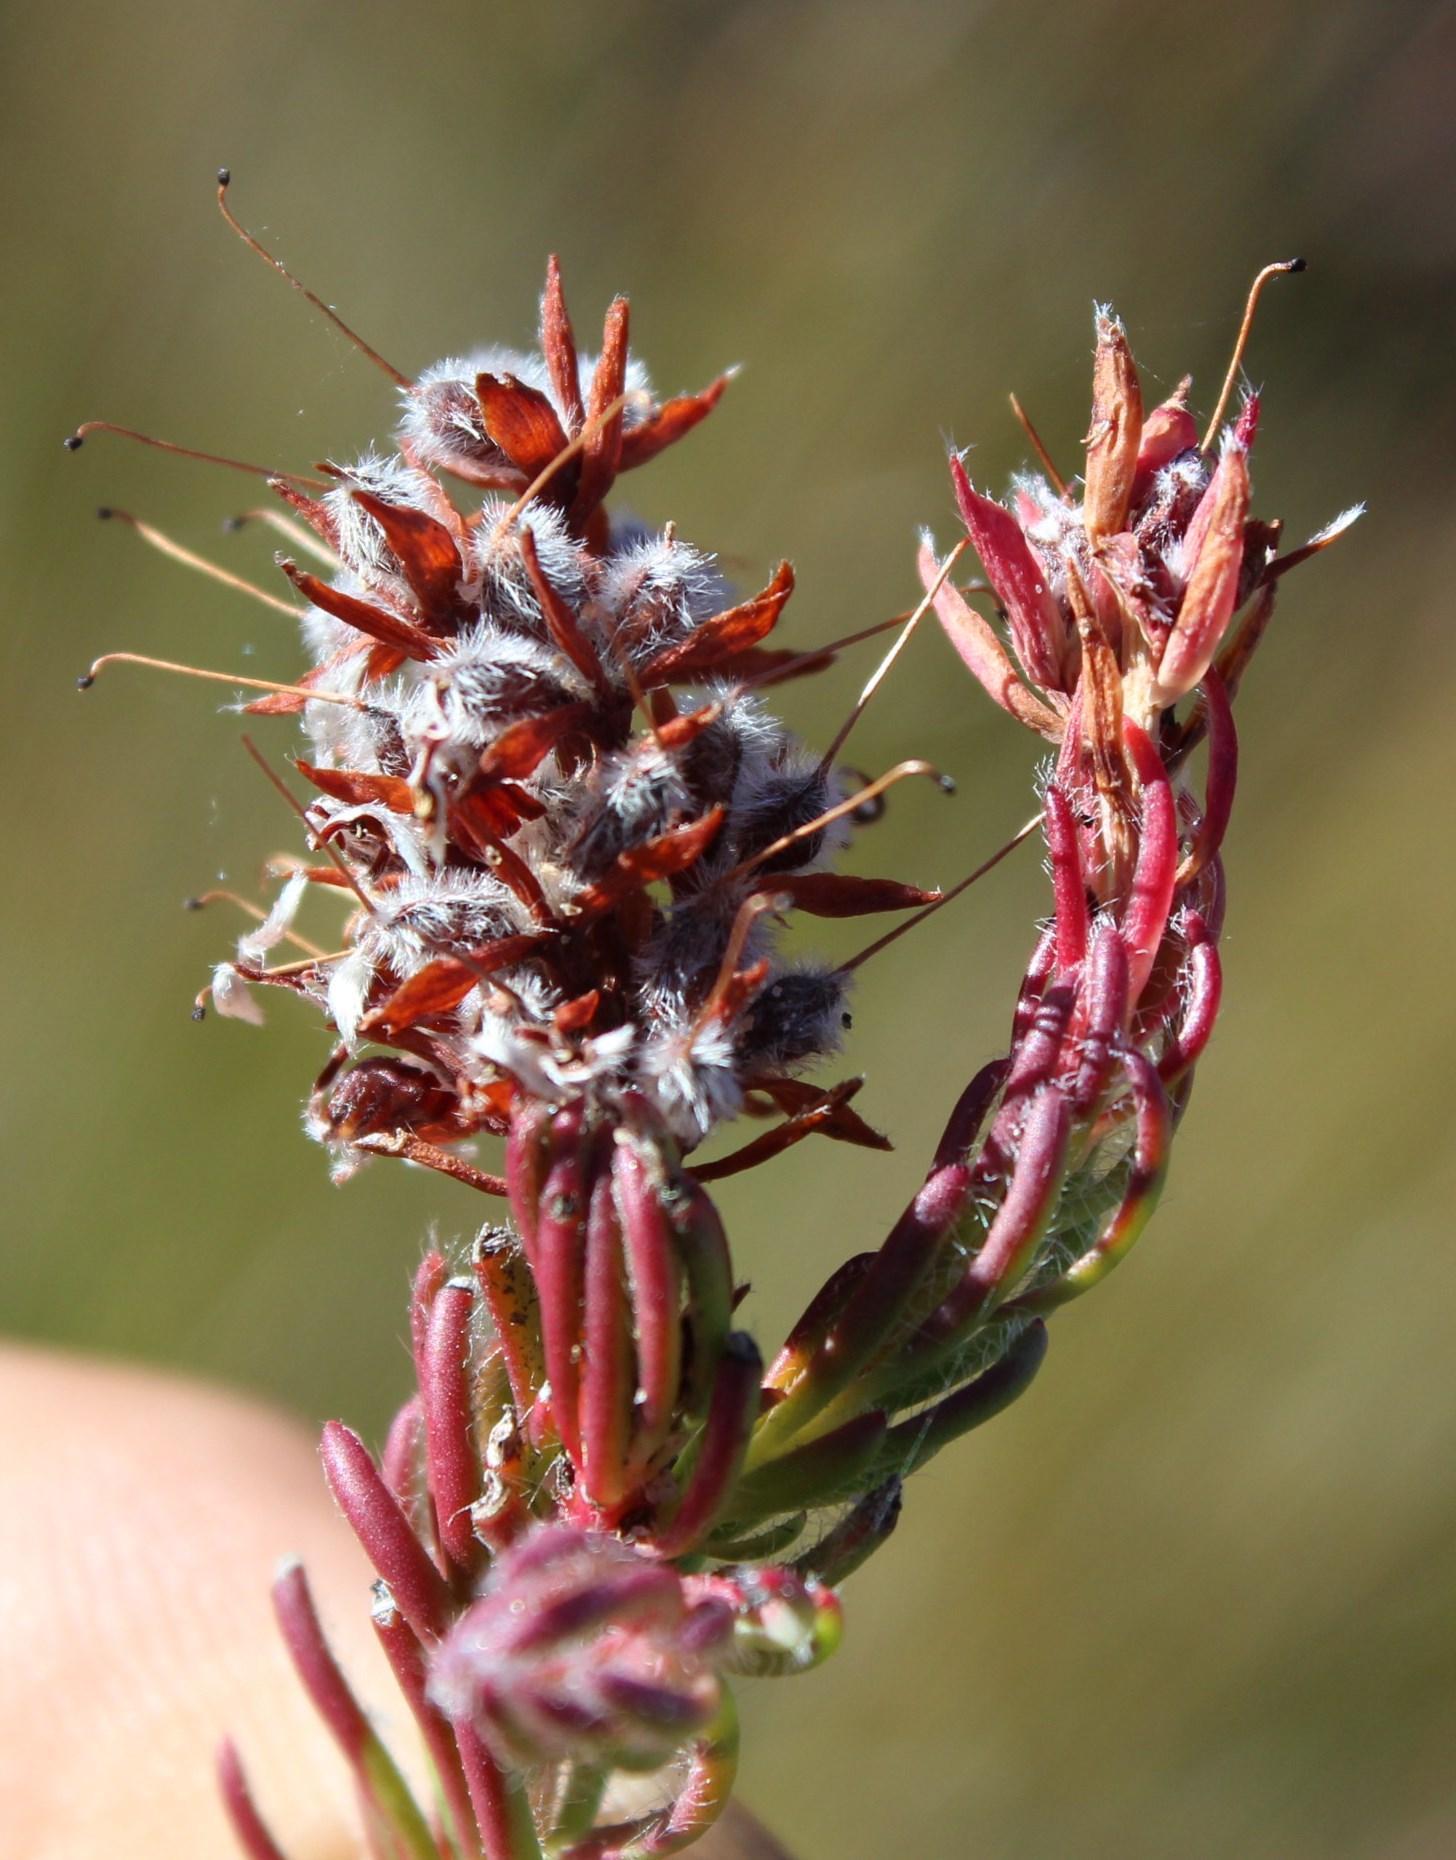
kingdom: Plantae
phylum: Tracheophyta
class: Magnoliopsida
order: Proteales
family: Proteaceae
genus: Spatalla
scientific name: Spatalla confusa
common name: Long-tube spoon
